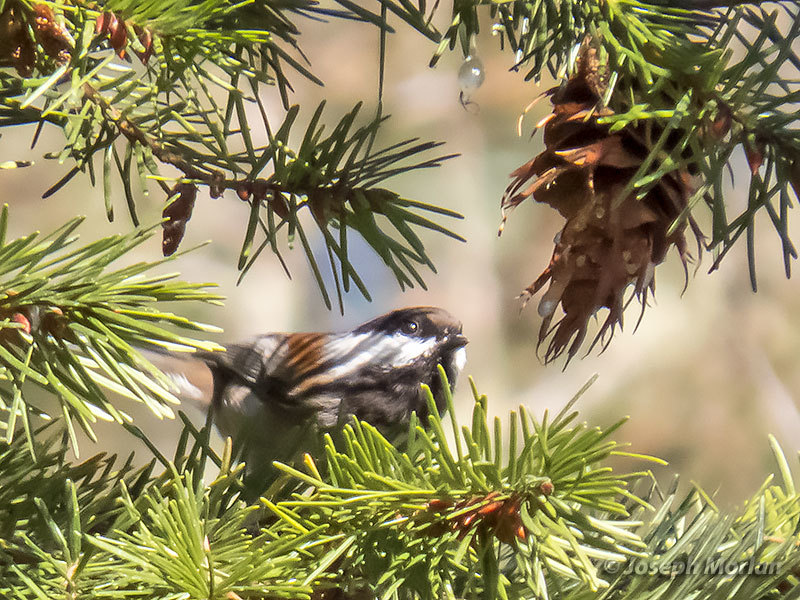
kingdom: Animalia
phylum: Chordata
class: Aves
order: Passeriformes
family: Paridae
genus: Poecile
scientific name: Poecile rufescens
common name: Chestnut-backed chickadee
